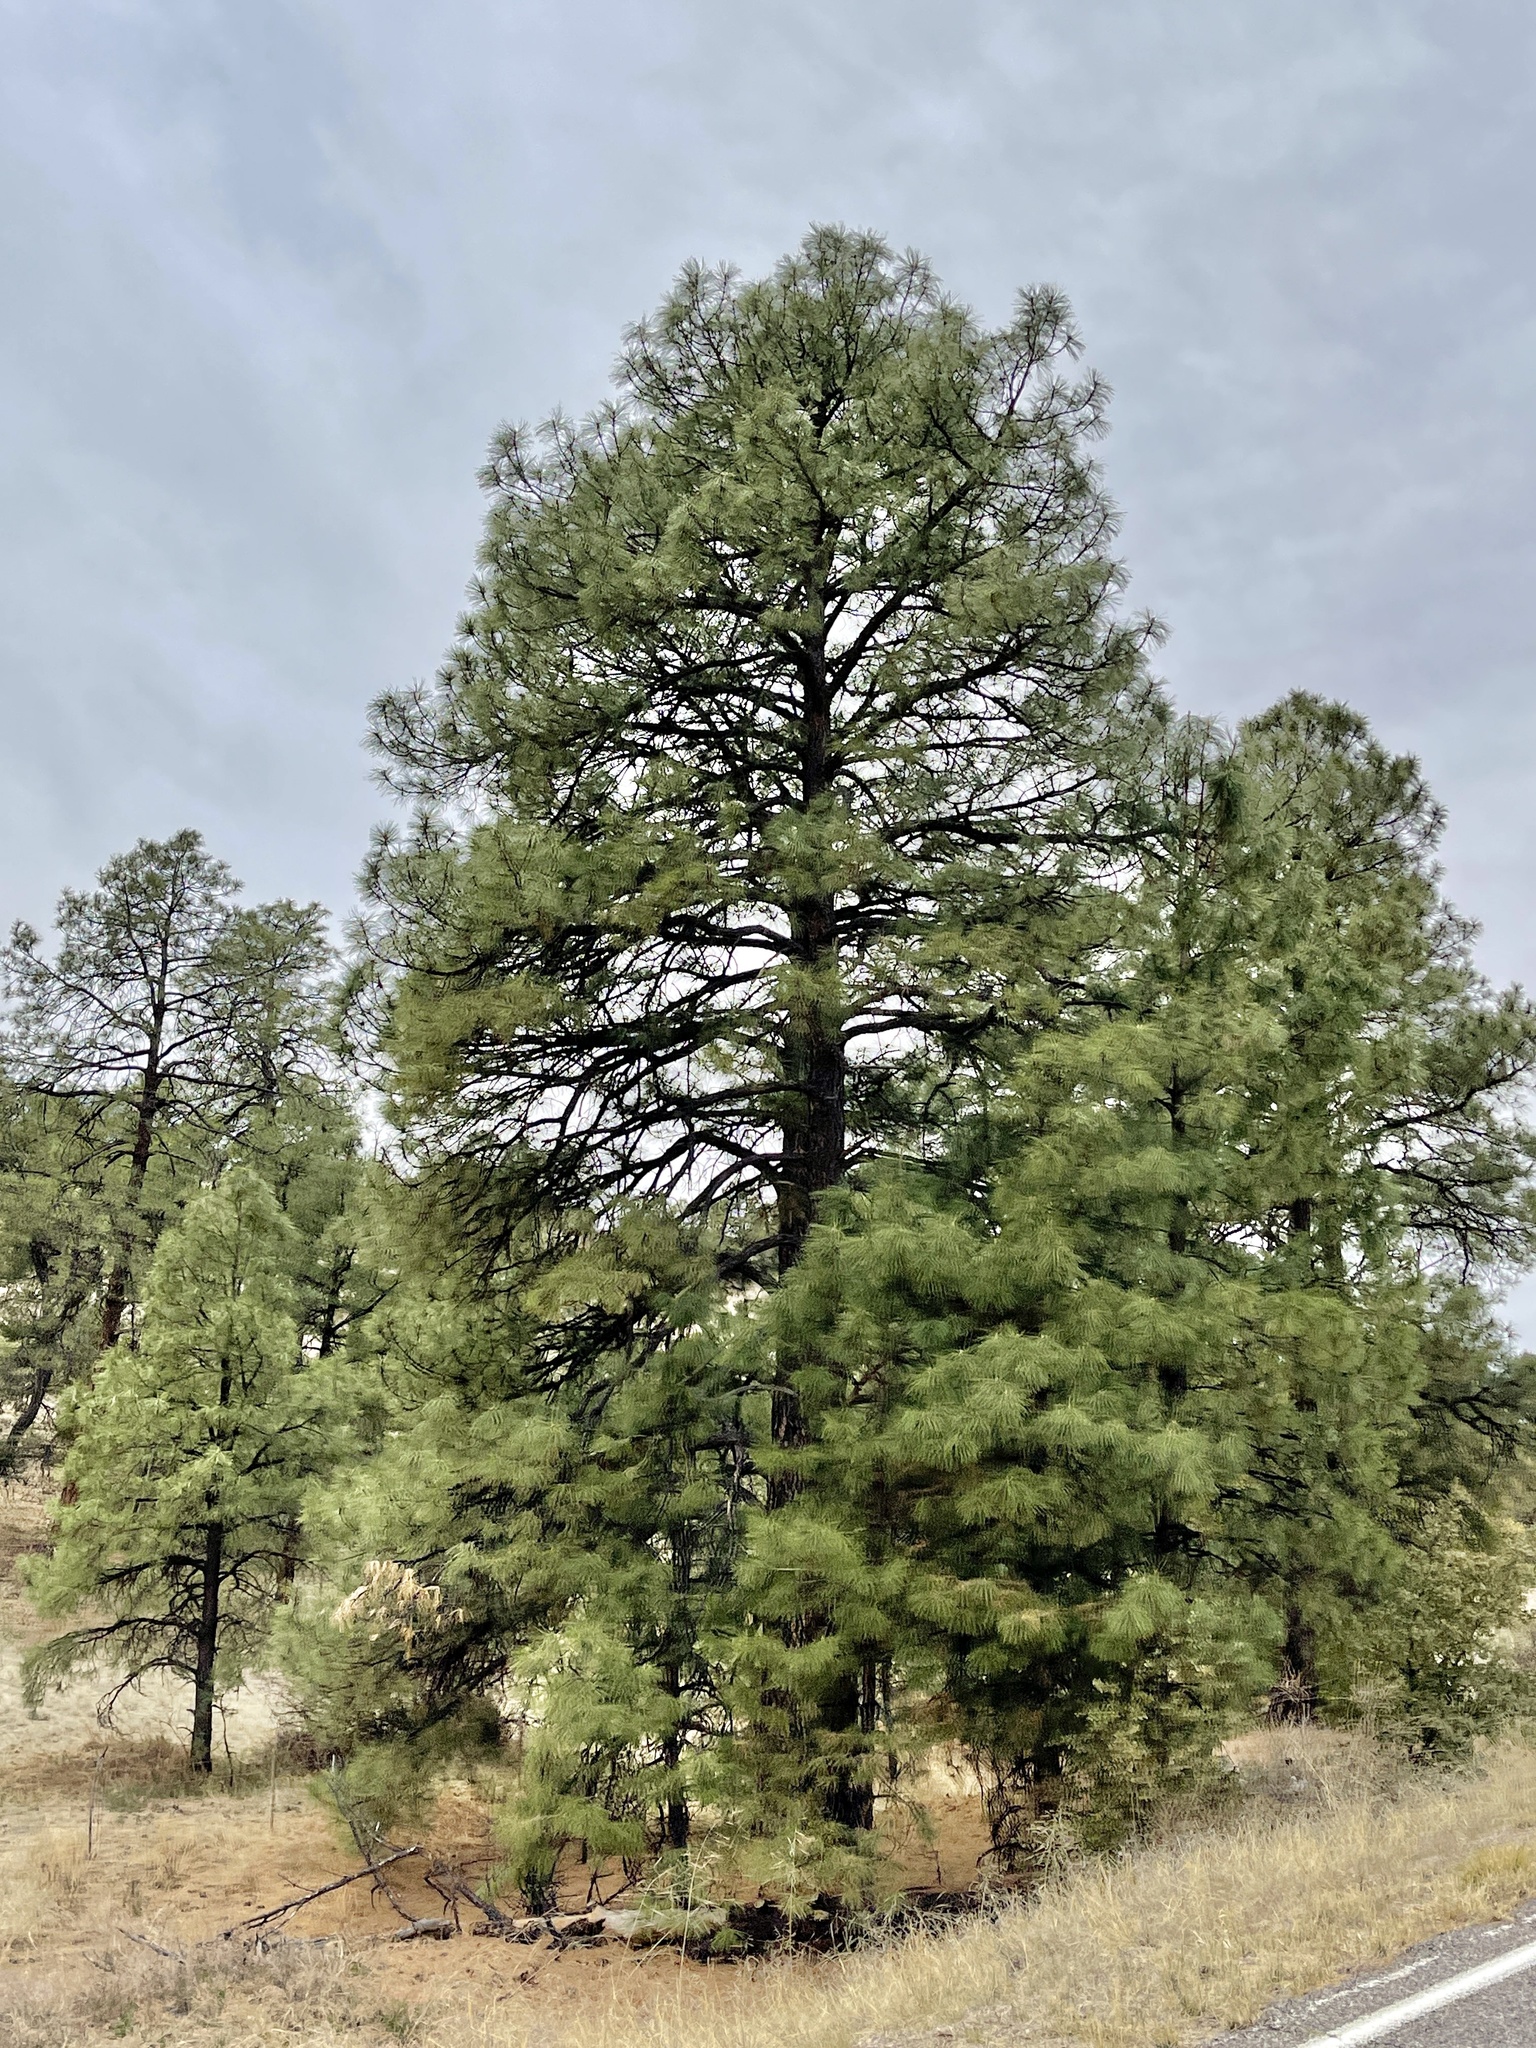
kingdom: Plantae
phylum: Tracheophyta
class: Pinopsida
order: Pinales
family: Pinaceae
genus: Pinus
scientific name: Pinus ponderosa
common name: Western yellow-pine
